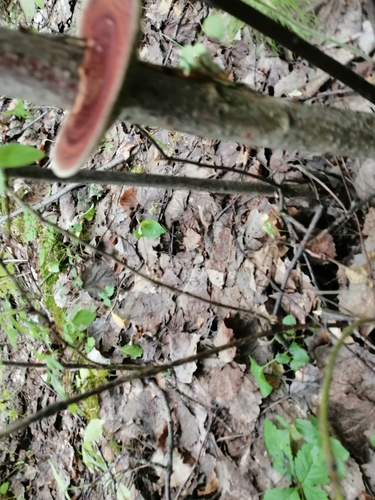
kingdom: Fungi
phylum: Basidiomycota
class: Agaricomycetes
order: Polyporales
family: Polyporaceae
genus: Daedaleopsis
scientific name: Daedaleopsis septentrionalis
